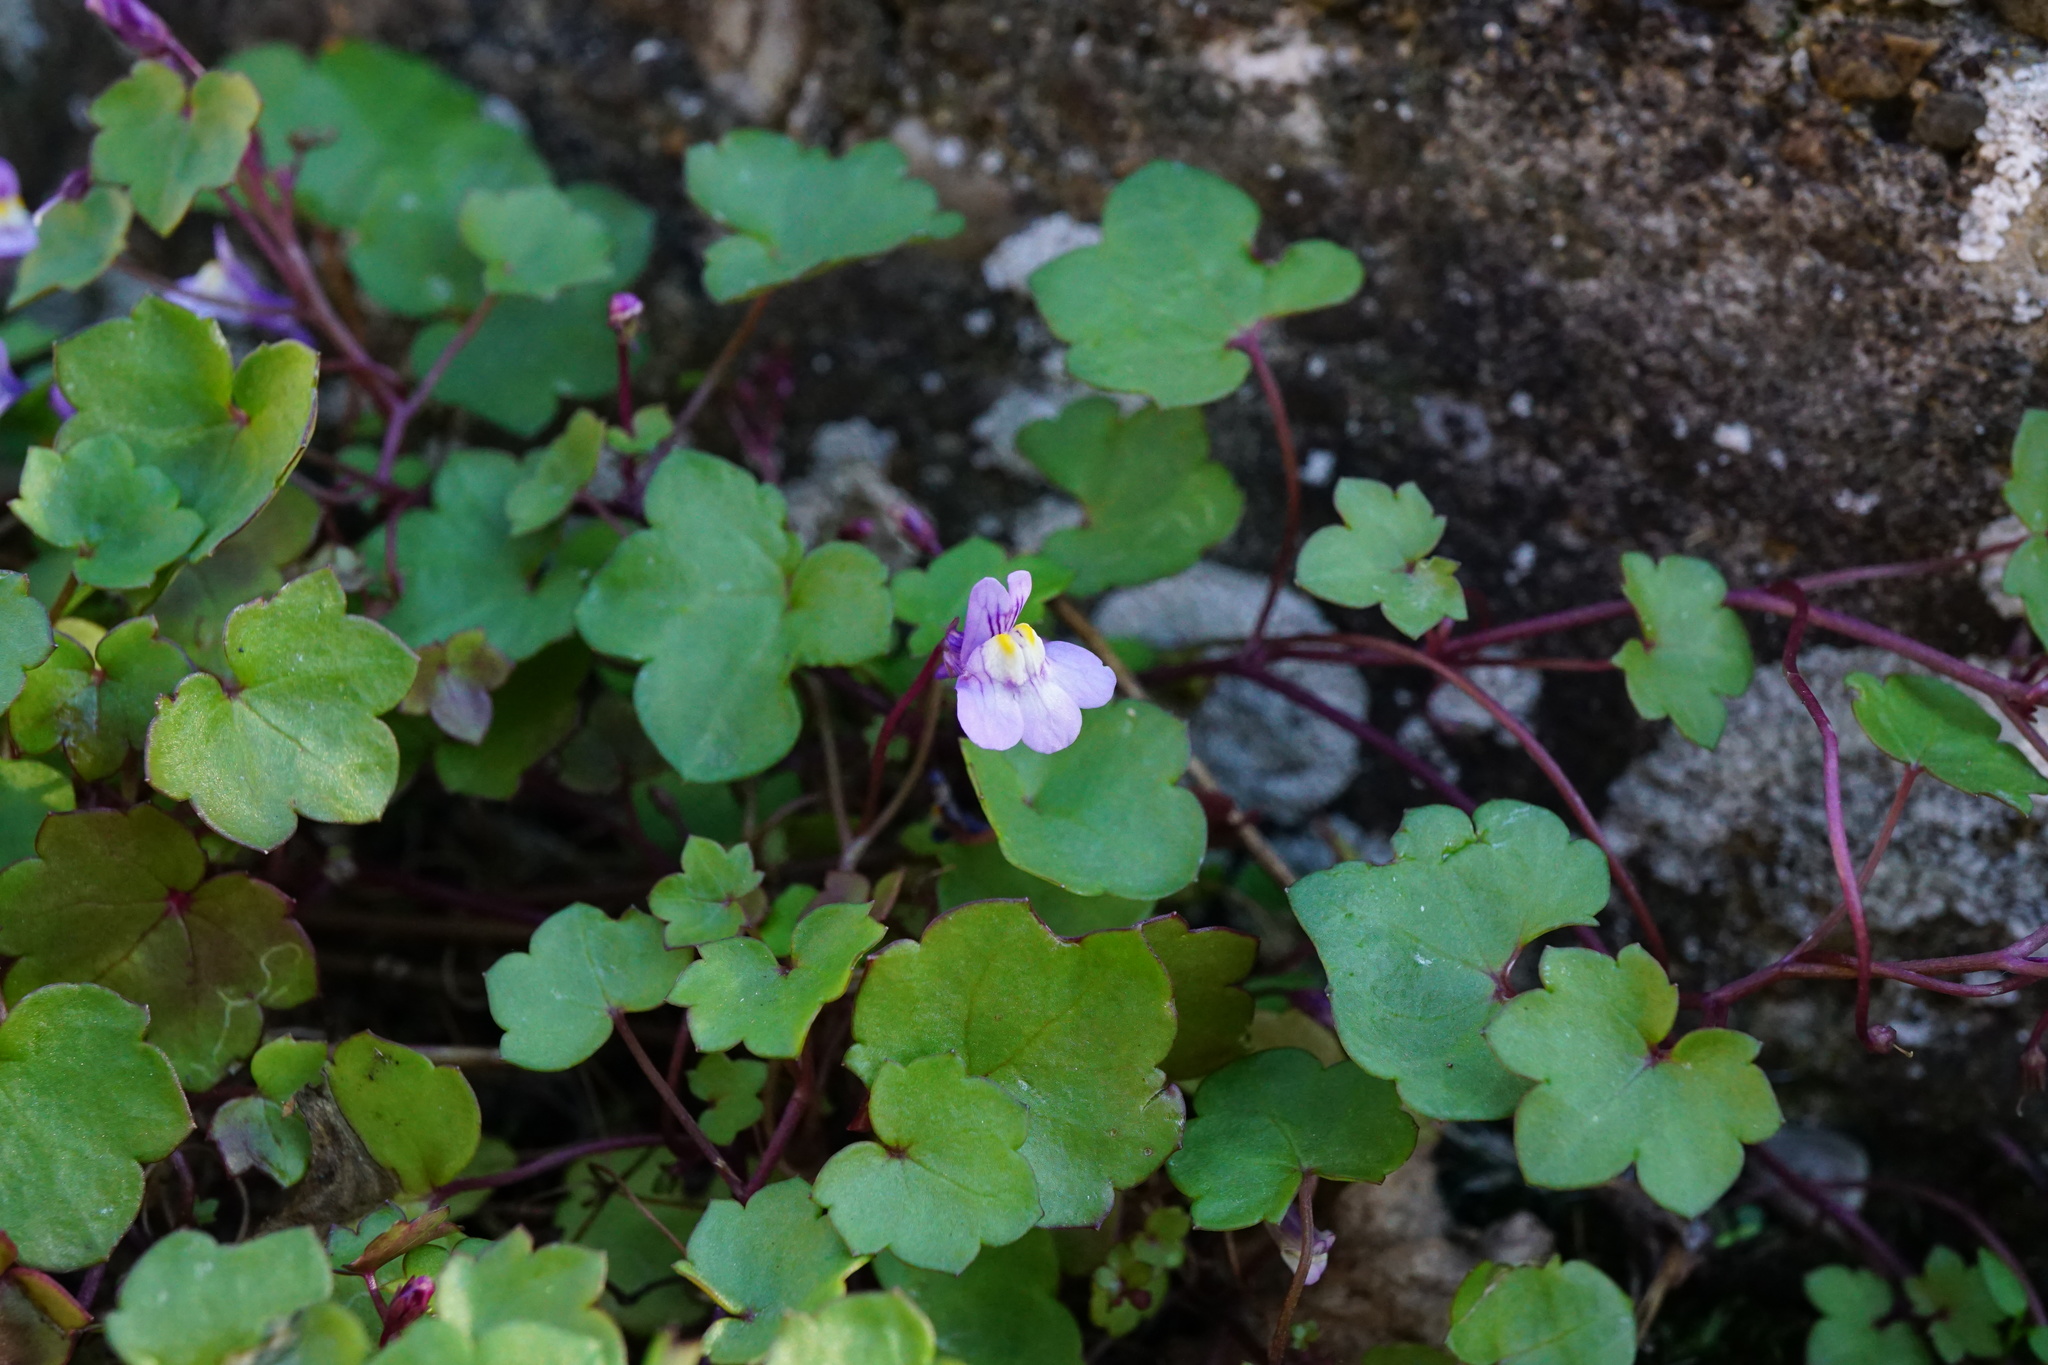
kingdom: Plantae
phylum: Tracheophyta
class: Magnoliopsida
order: Lamiales
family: Plantaginaceae
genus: Cymbalaria
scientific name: Cymbalaria muralis
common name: Ivy-leaved toadflax
